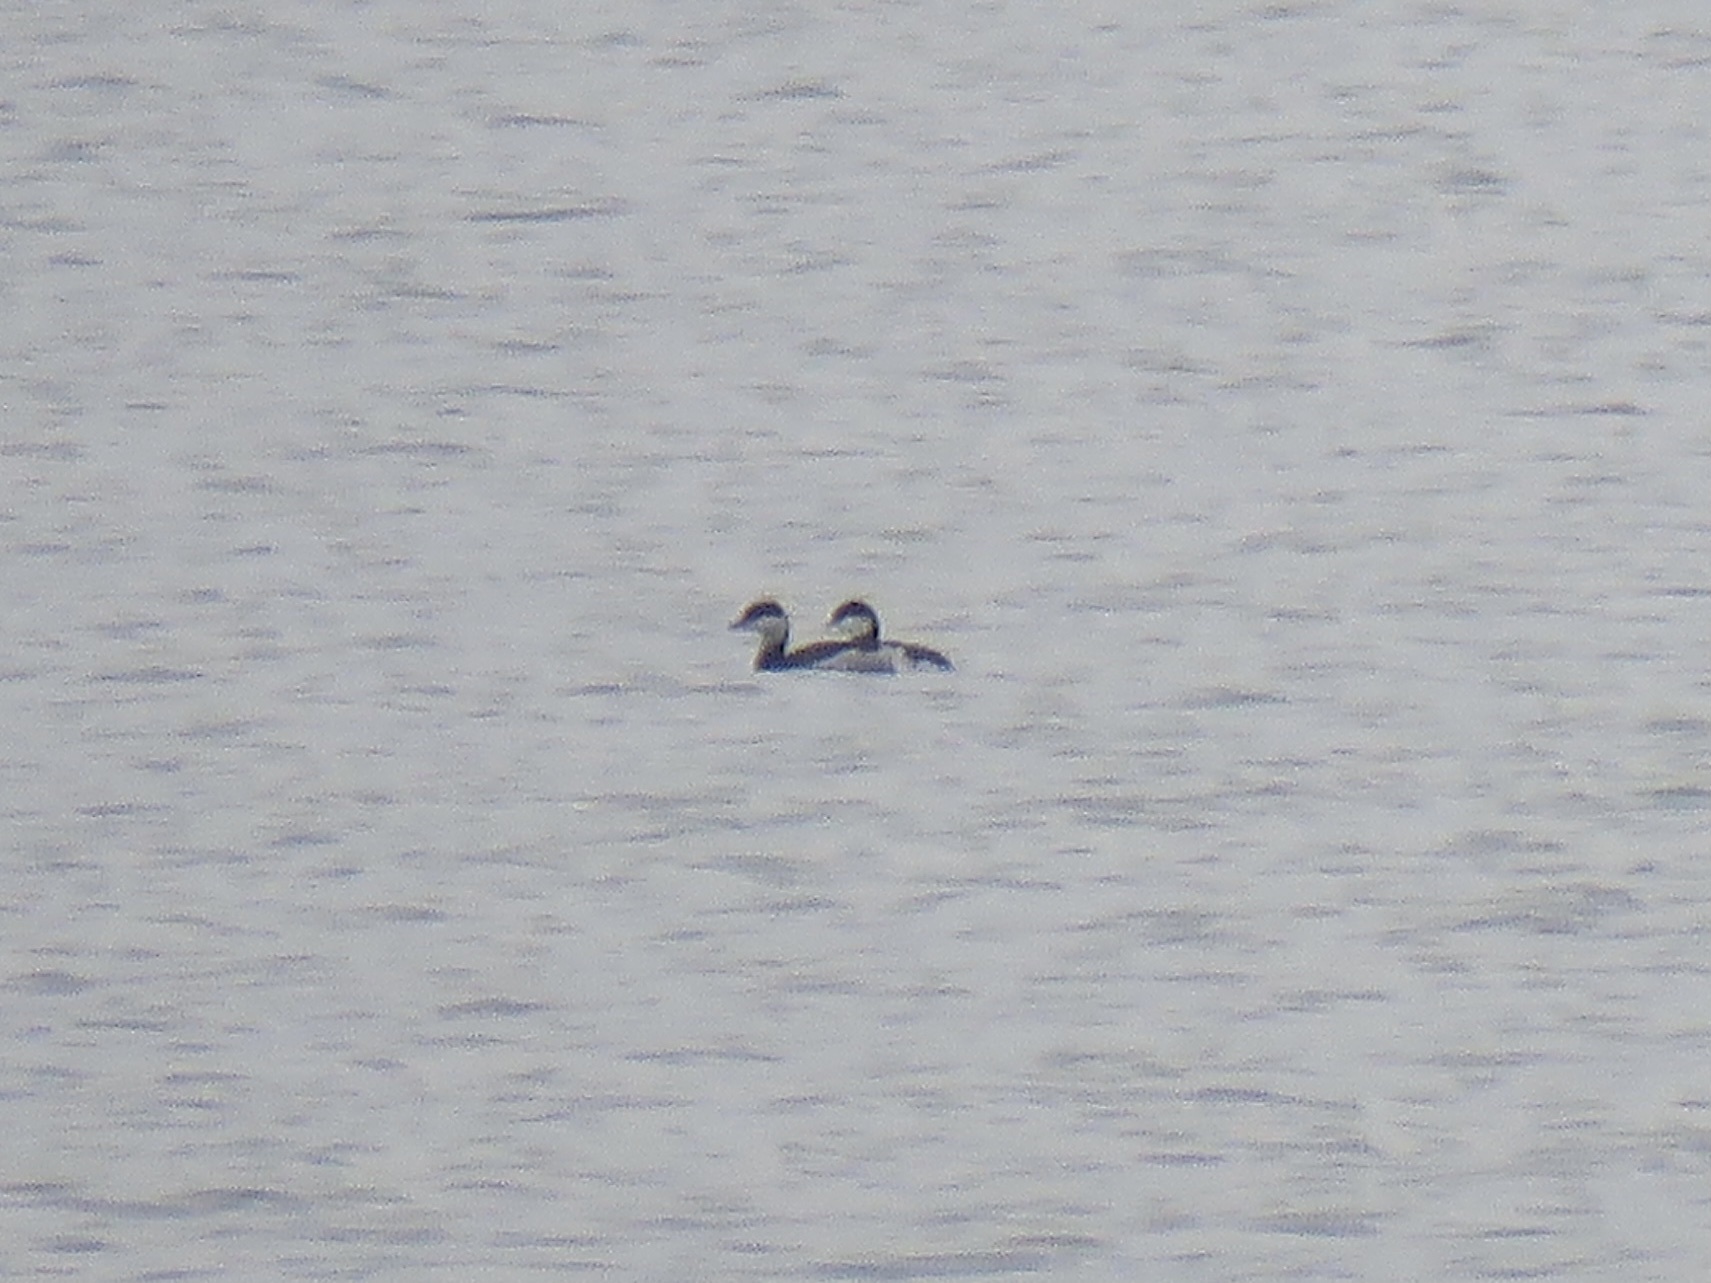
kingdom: Animalia
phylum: Chordata
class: Aves
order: Podicipediformes
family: Podicipedidae
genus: Podiceps
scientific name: Podiceps auritus
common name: Horned grebe
